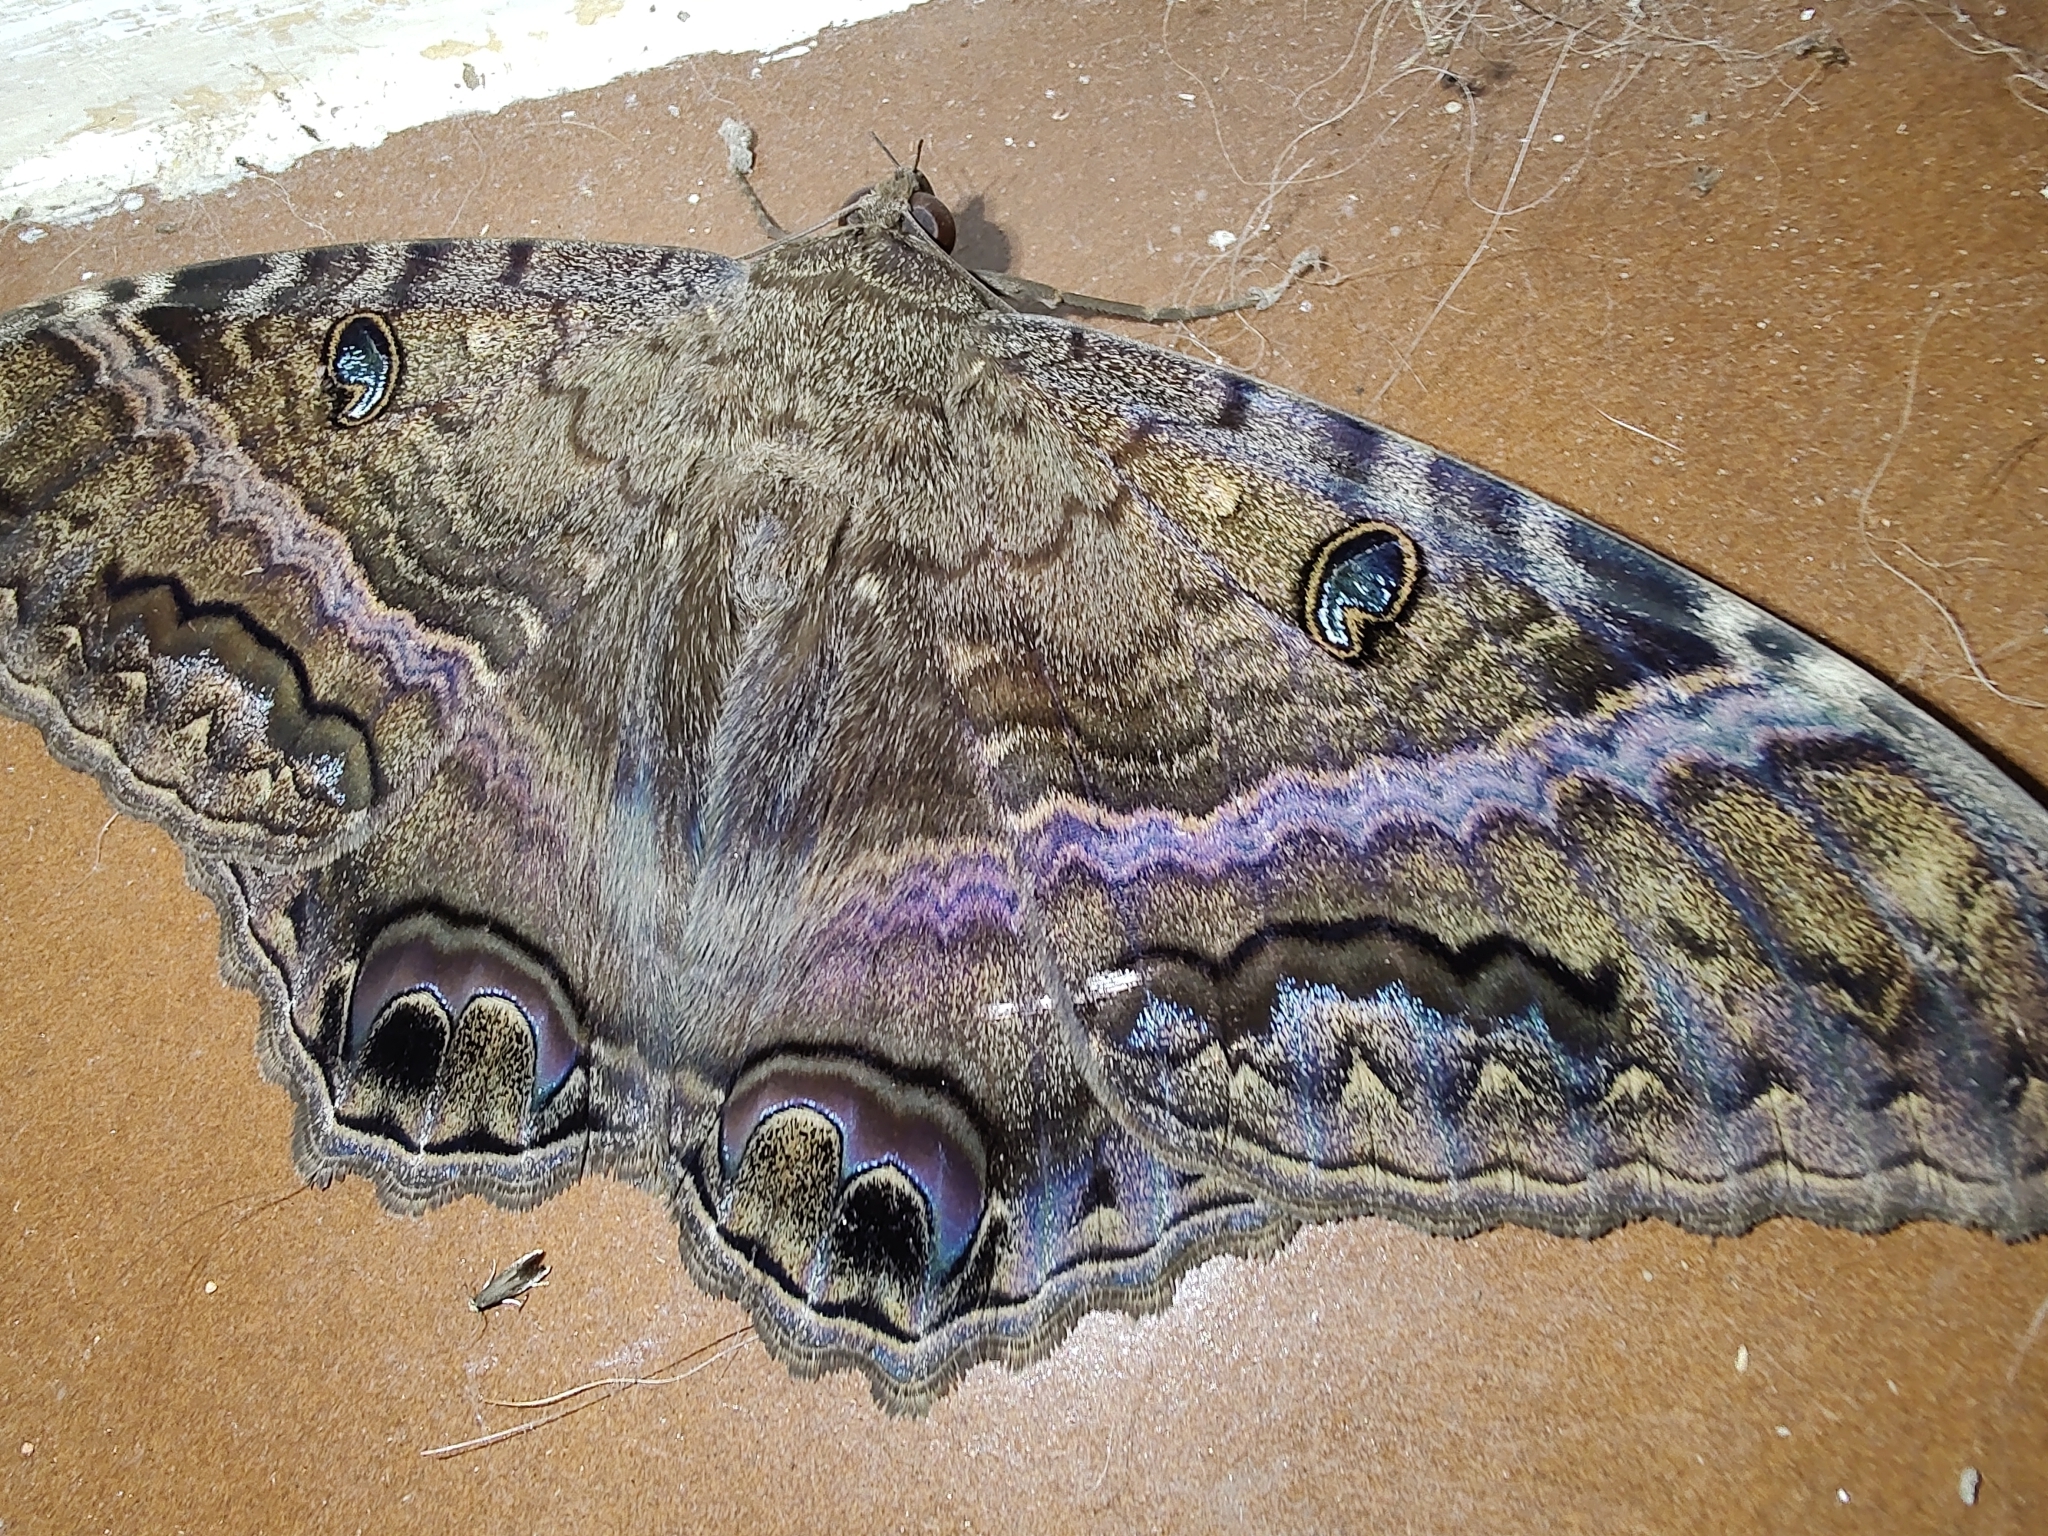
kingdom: Animalia
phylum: Arthropoda
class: Insecta
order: Lepidoptera
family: Erebidae
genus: Ascalapha
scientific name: Ascalapha odorata
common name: Black witch
